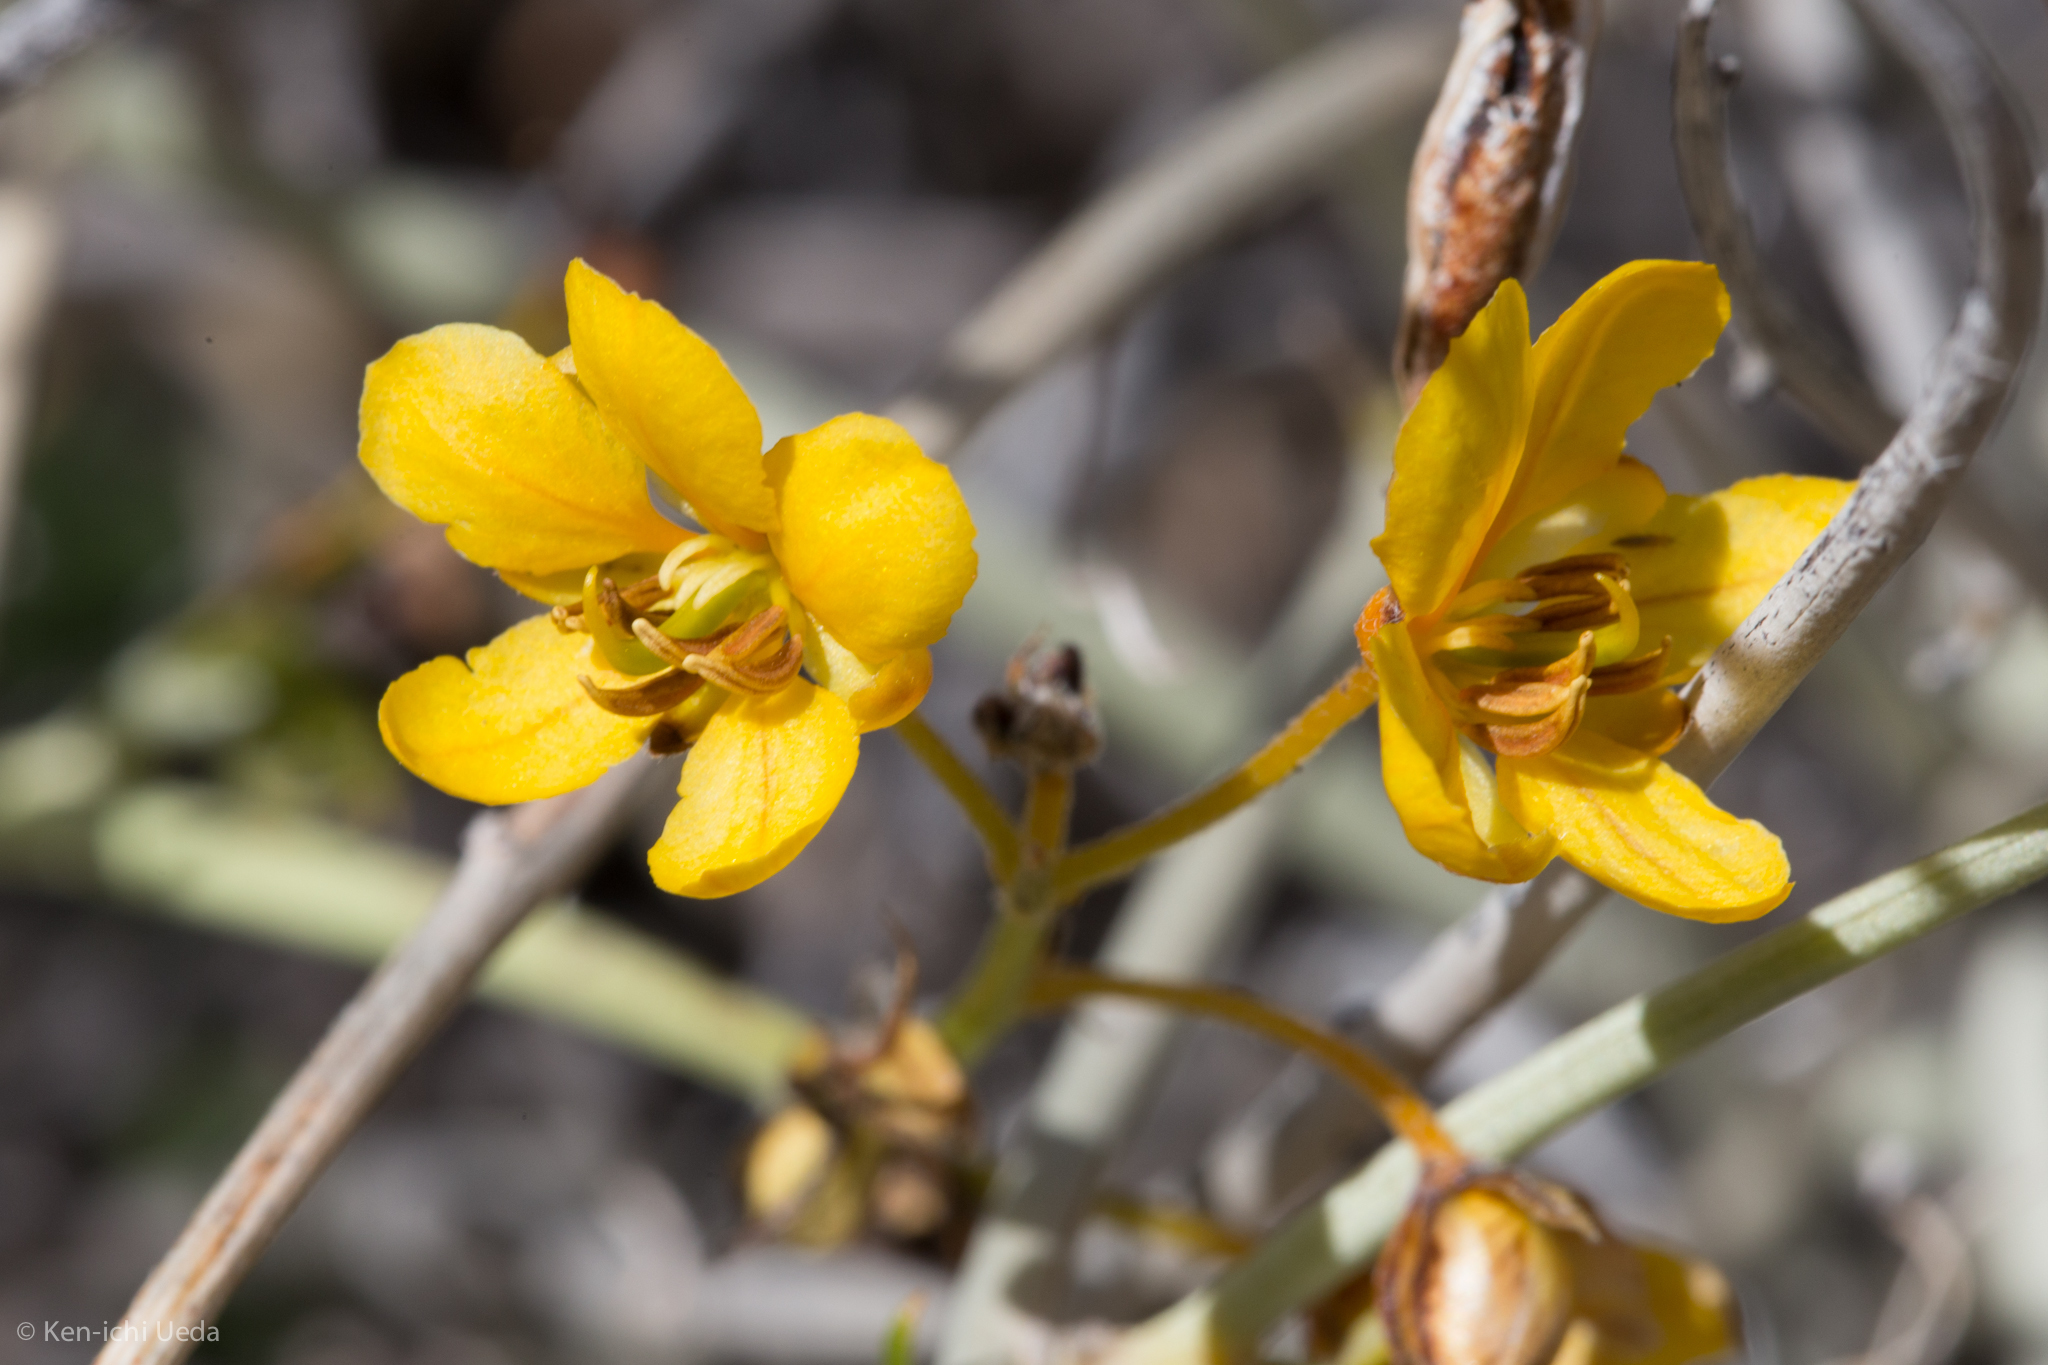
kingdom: Plantae
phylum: Tracheophyta
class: Magnoliopsida
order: Fabales
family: Fabaceae
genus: Senna
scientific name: Senna armata
